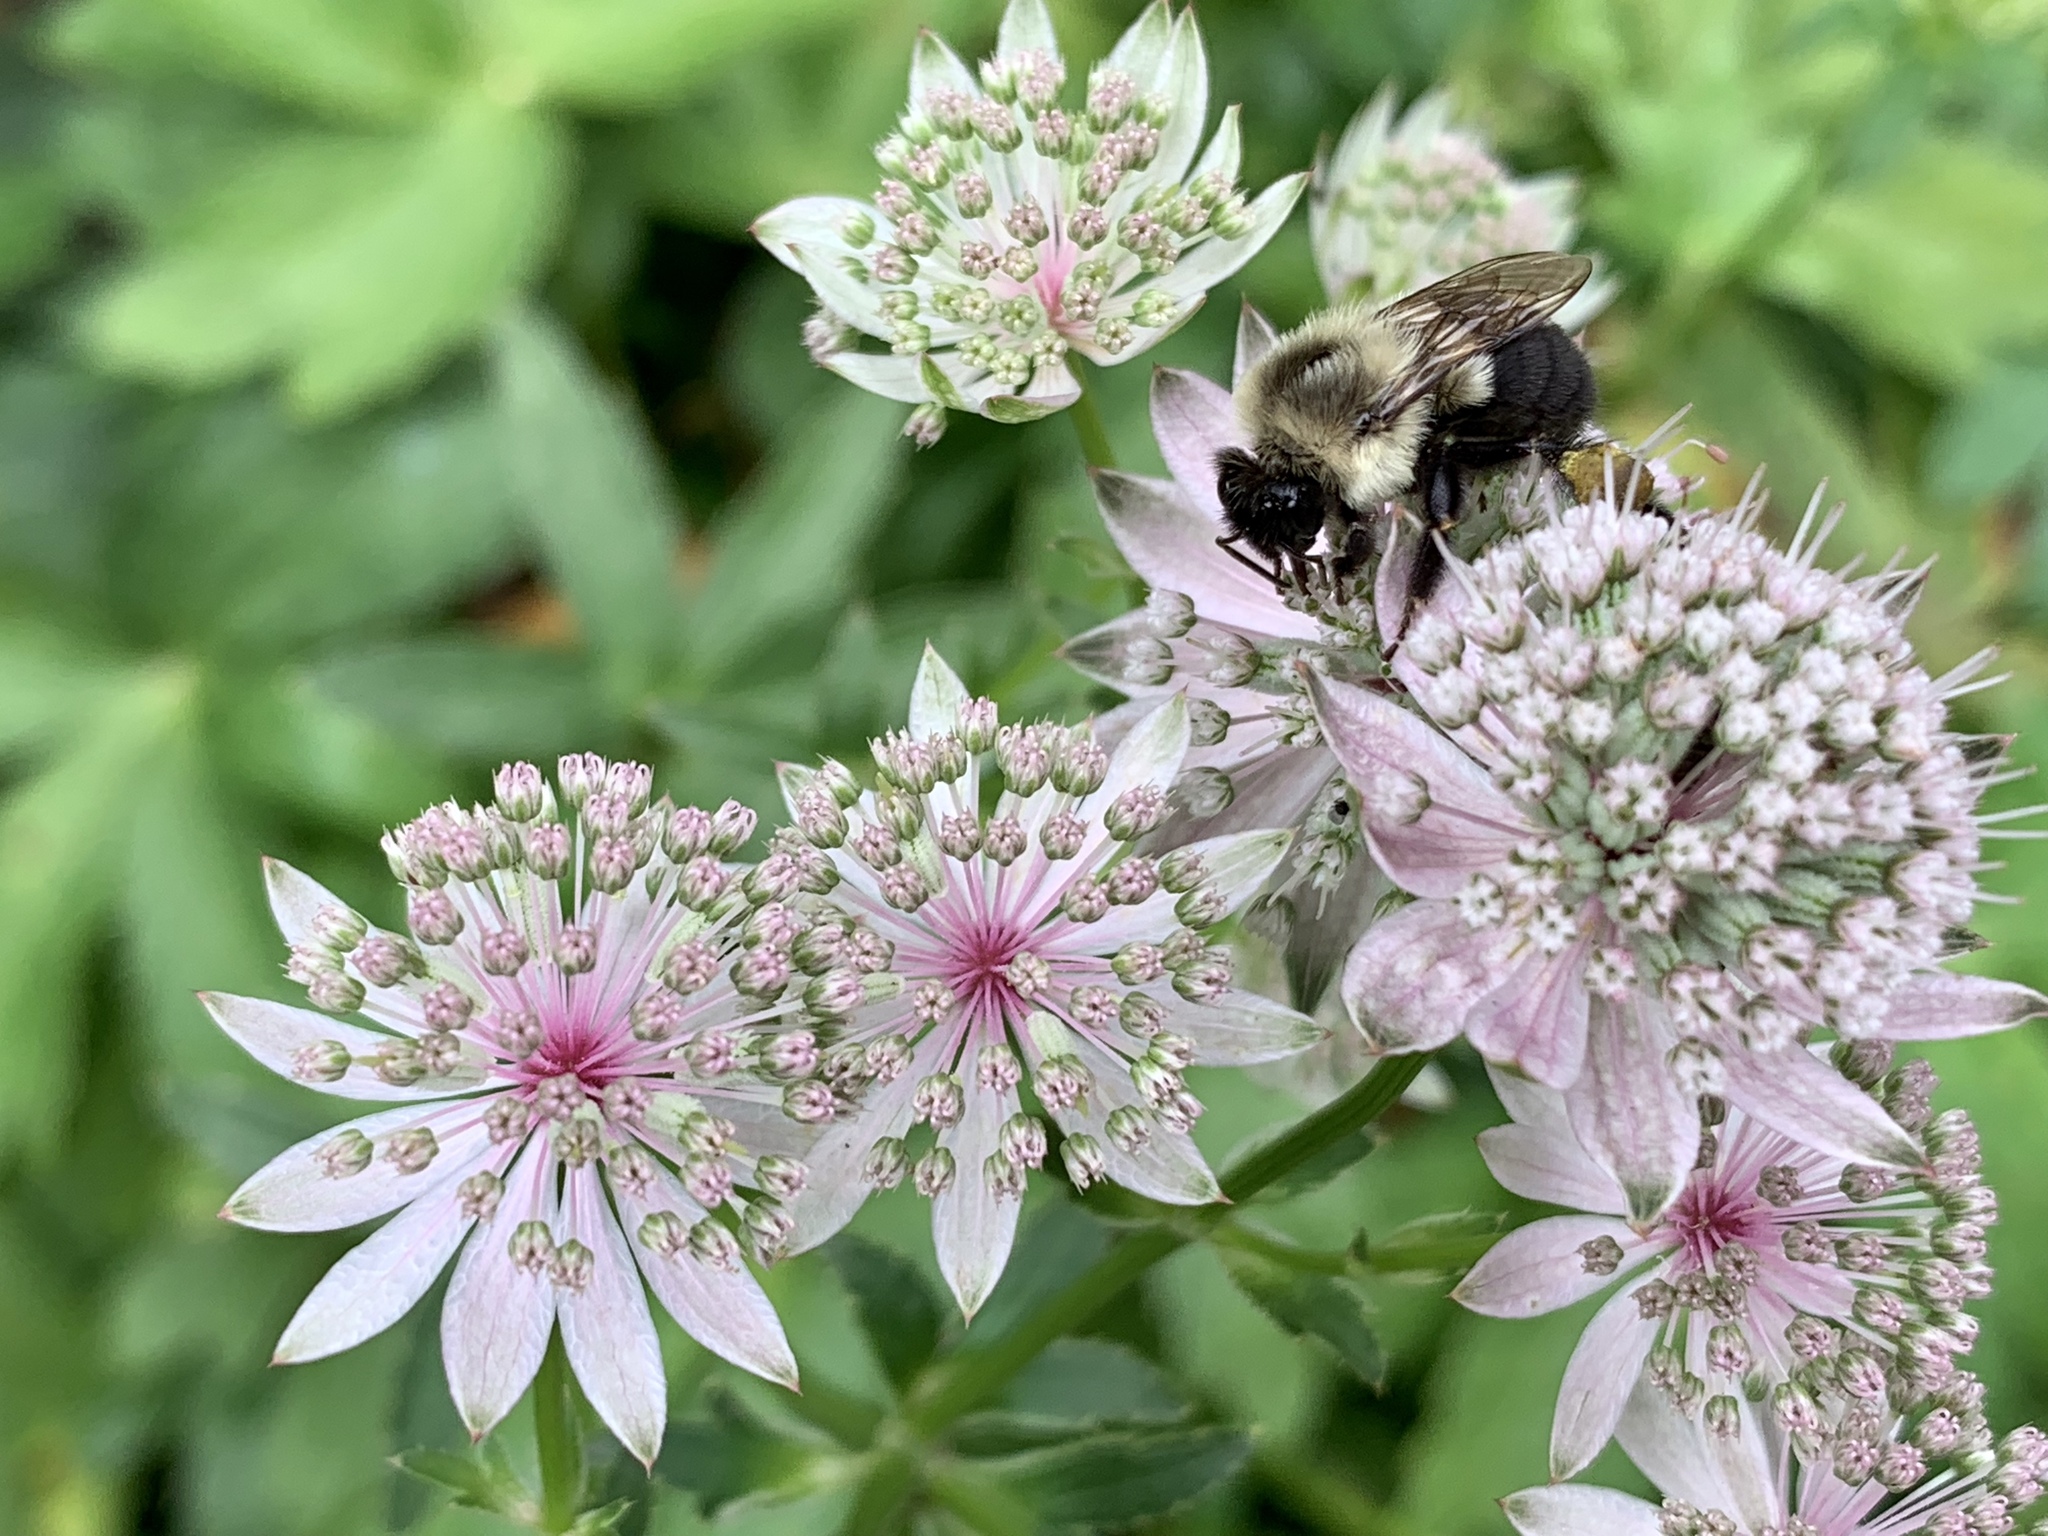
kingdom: Animalia
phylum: Arthropoda
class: Insecta
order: Hymenoptera
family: Apidae
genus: Bombus
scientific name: Bombus impatiens
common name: Common eastern bumble bee
